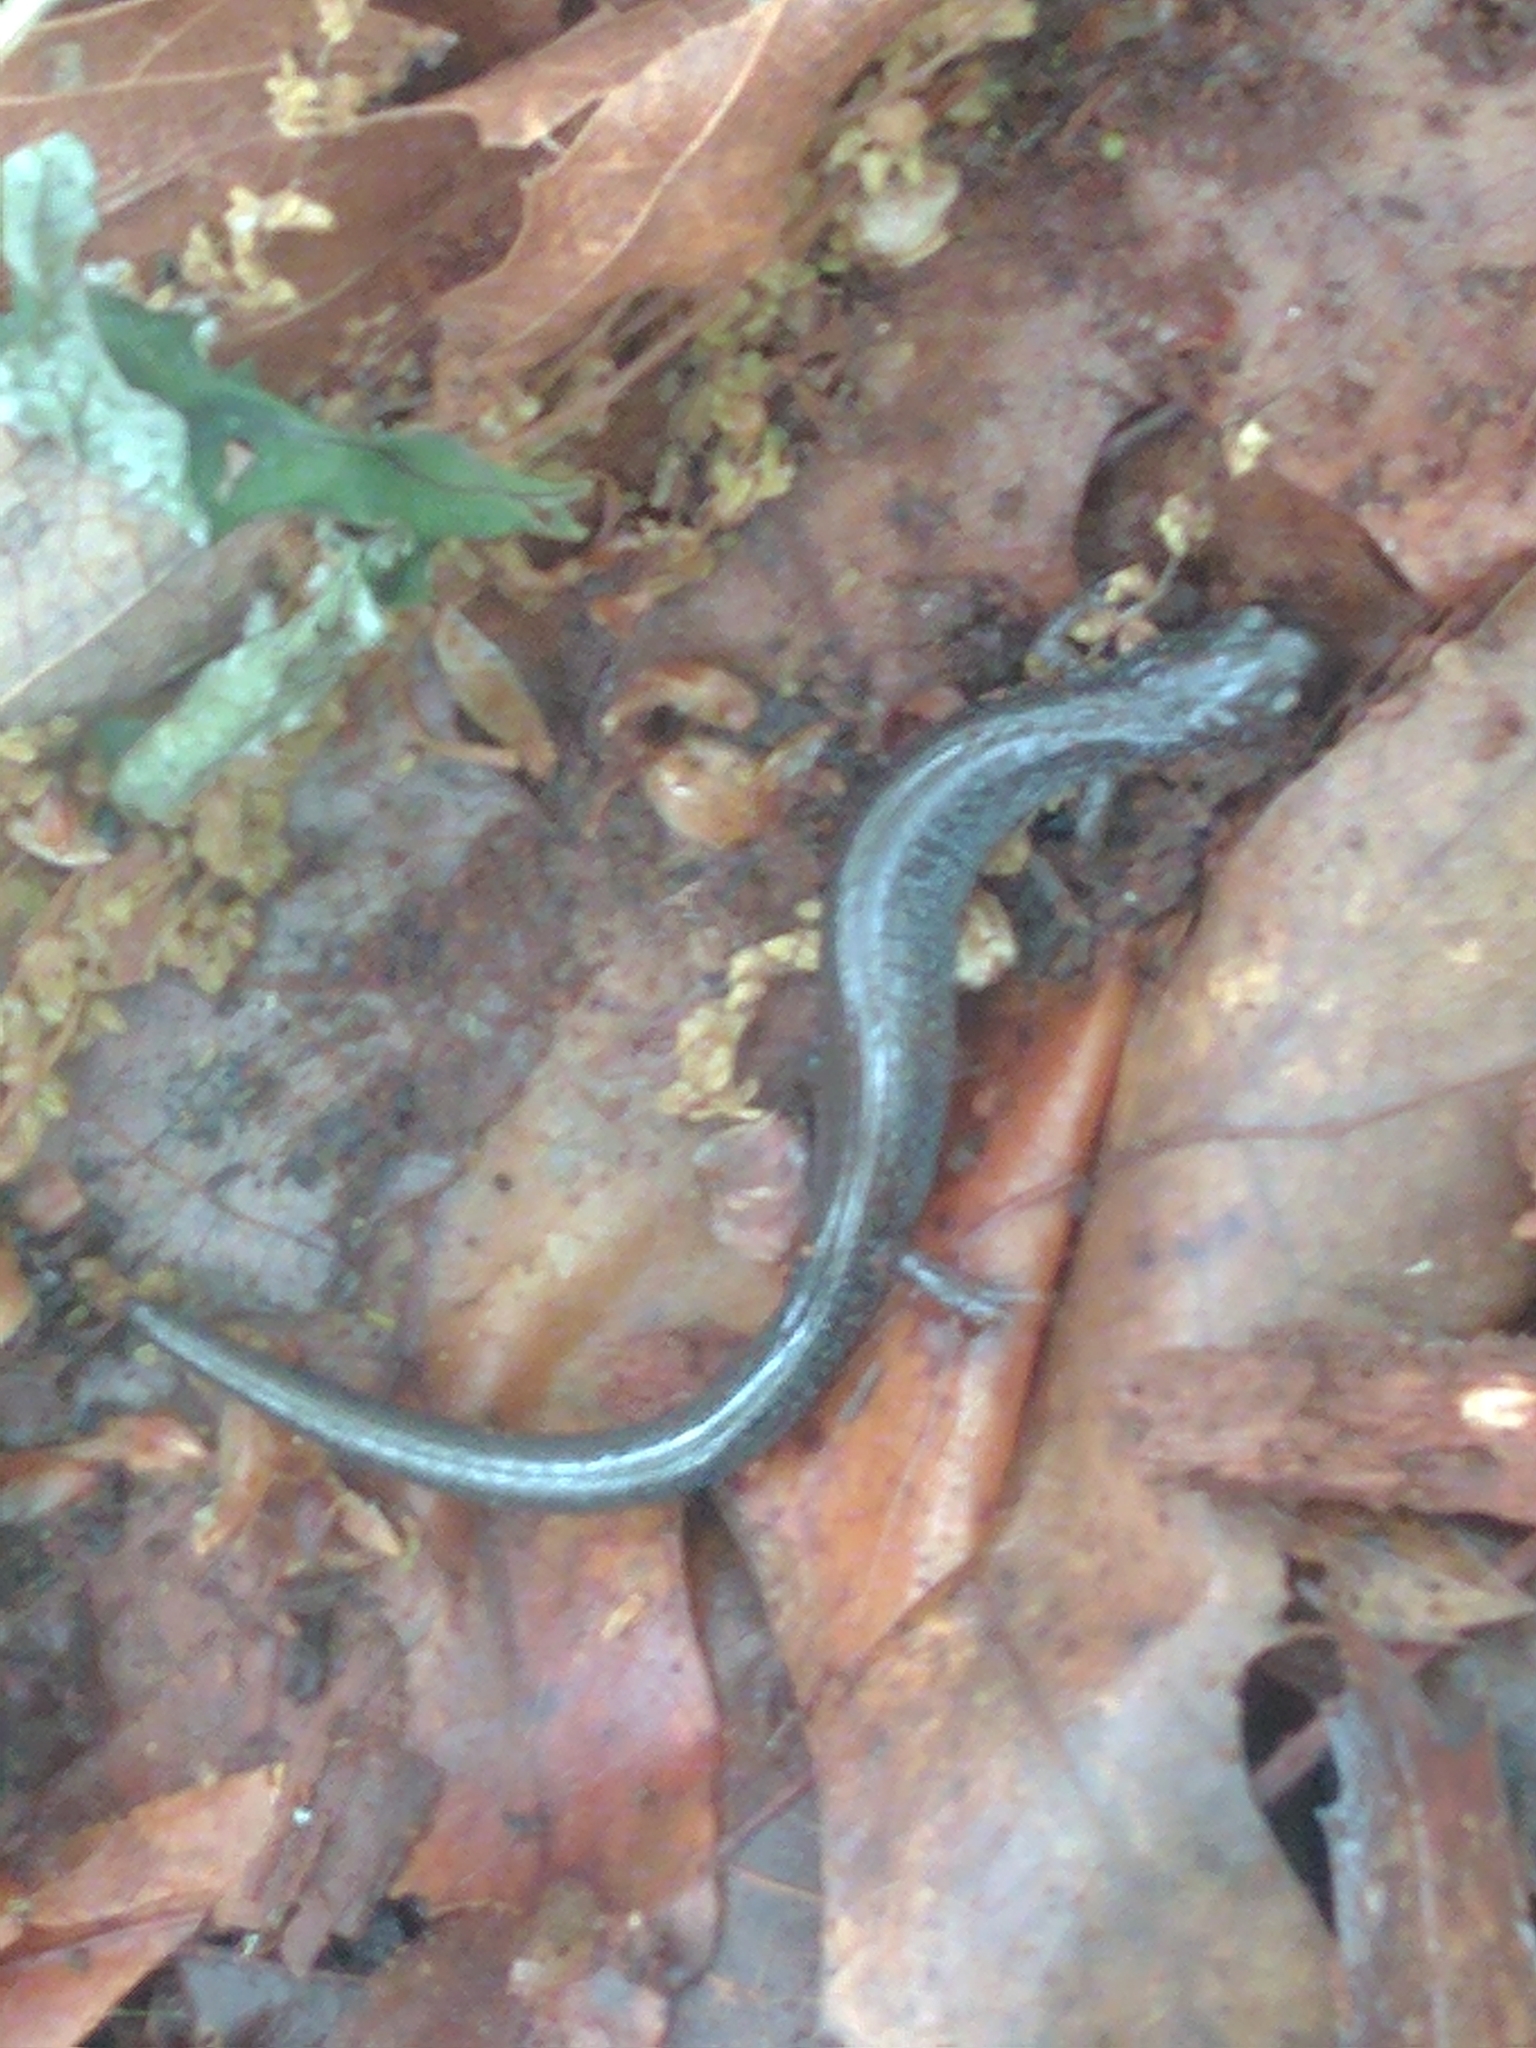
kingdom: Animalia
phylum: Chordata
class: Amphibia
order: Caudata
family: Plethodontidae
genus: Plethodon
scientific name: Plethodon cinereus
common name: Redback salamander
